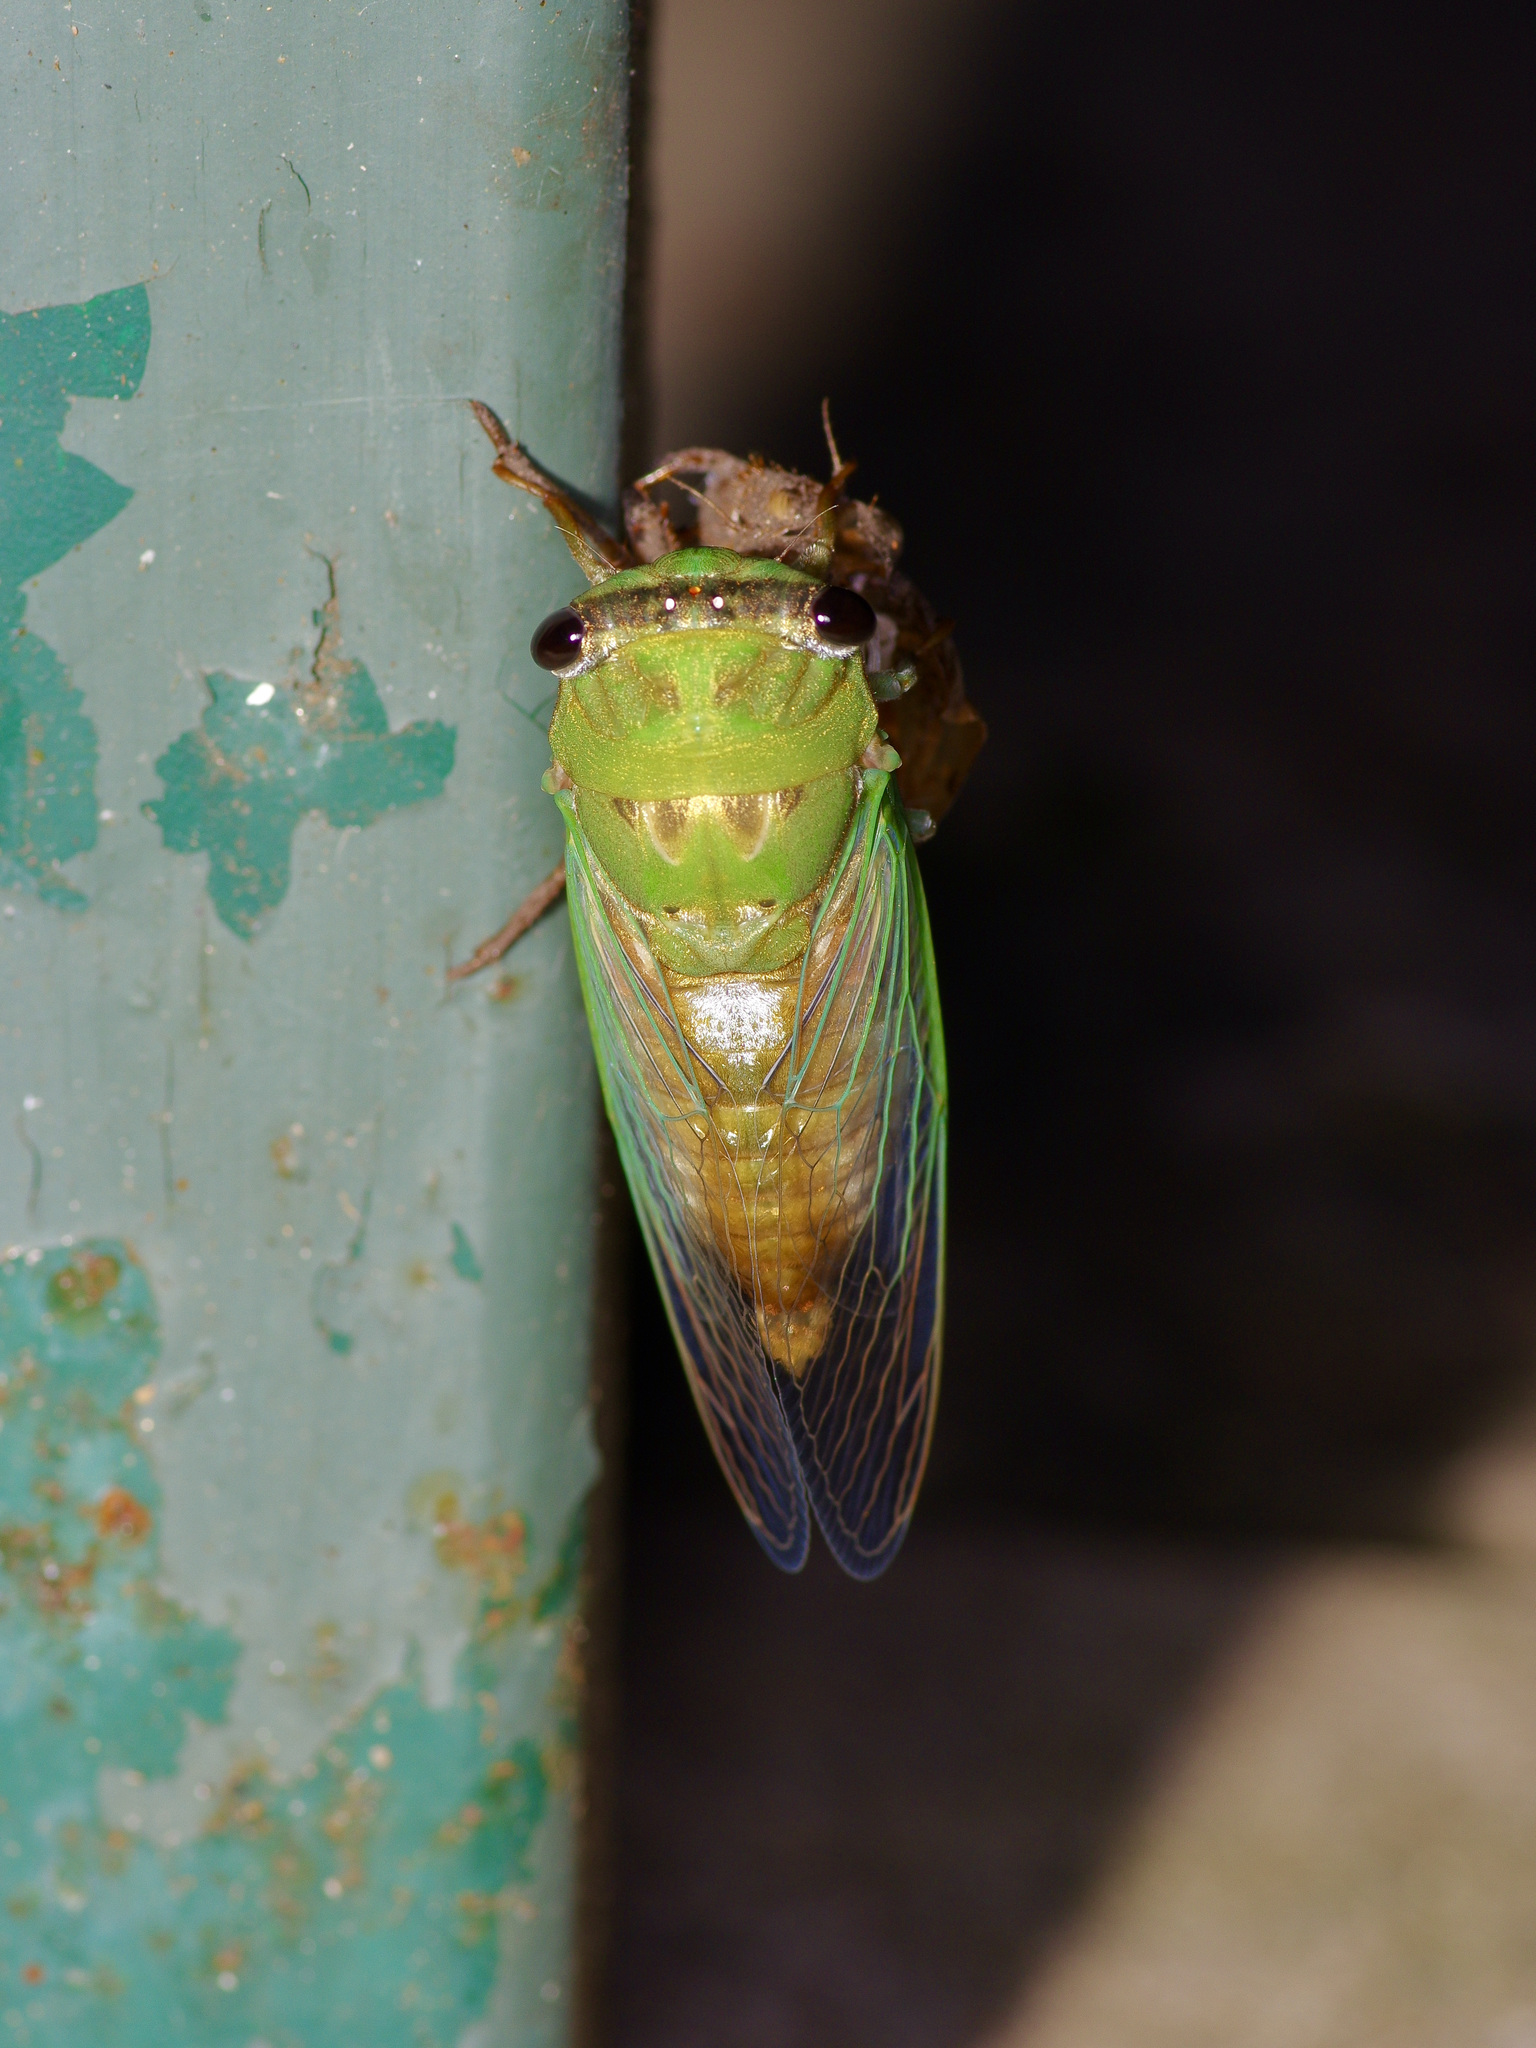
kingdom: Animalia
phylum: Arthropoda
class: Insecta
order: Hemiptera
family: Cicadidae
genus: Neotibicen
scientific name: Neotibicen superbus
